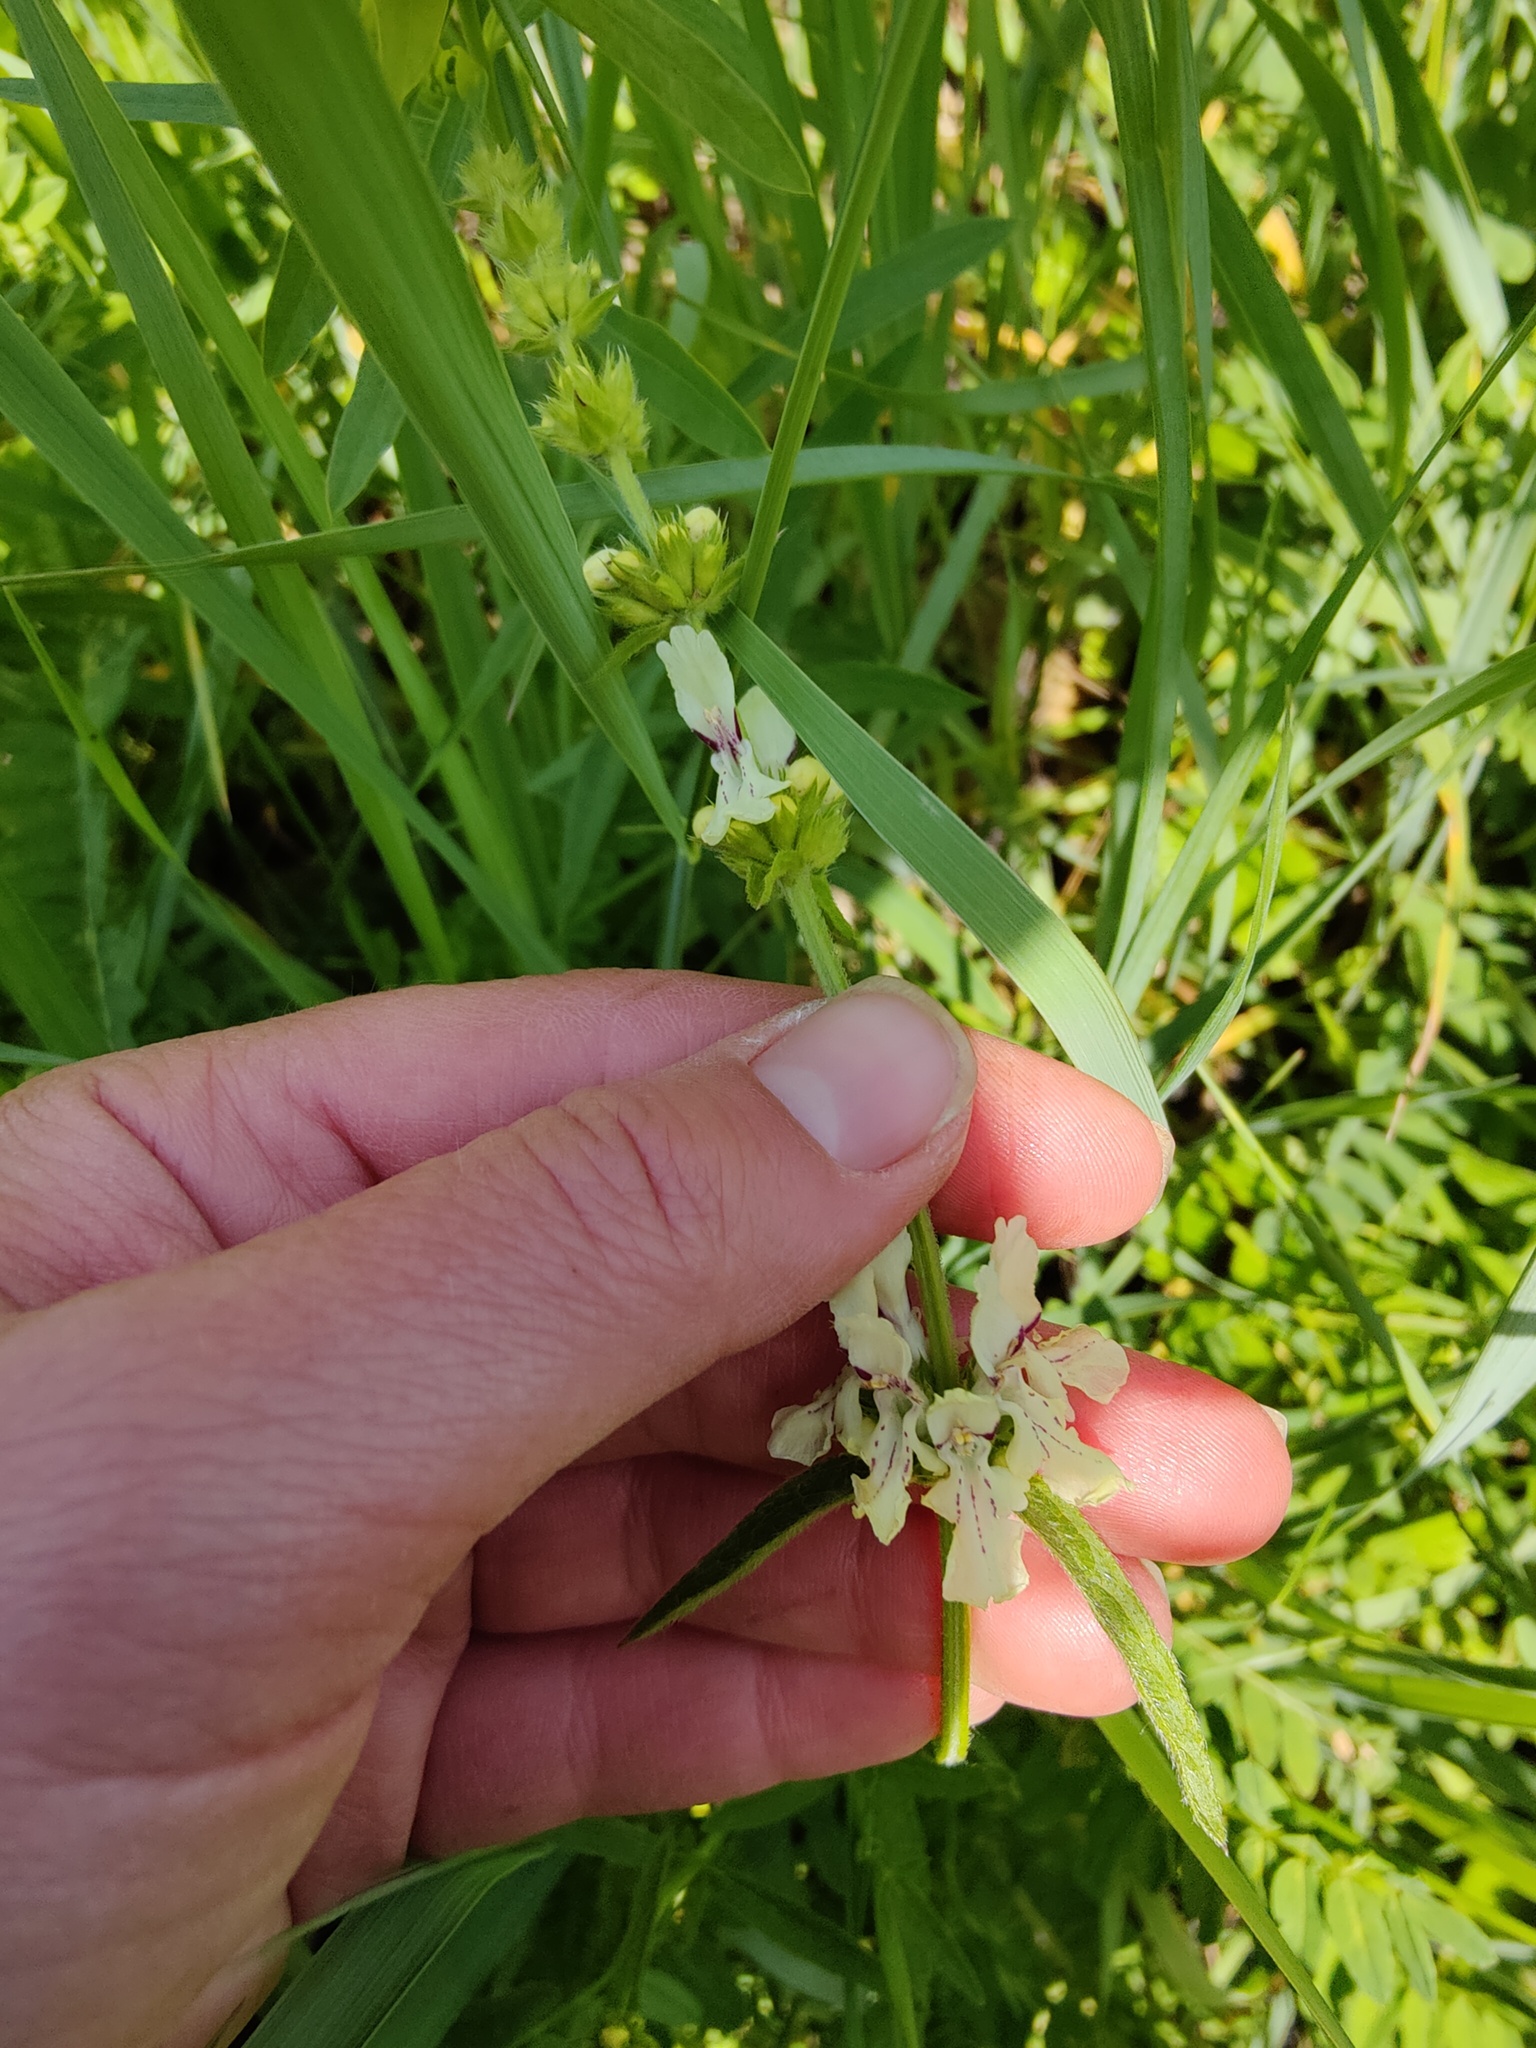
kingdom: Plantae
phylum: Tracheophyta
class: Magnoliopsida
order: Lamiales
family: Lamiaceae
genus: Stachys
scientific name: Stachys recta
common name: Perennial yellow-woundwort
